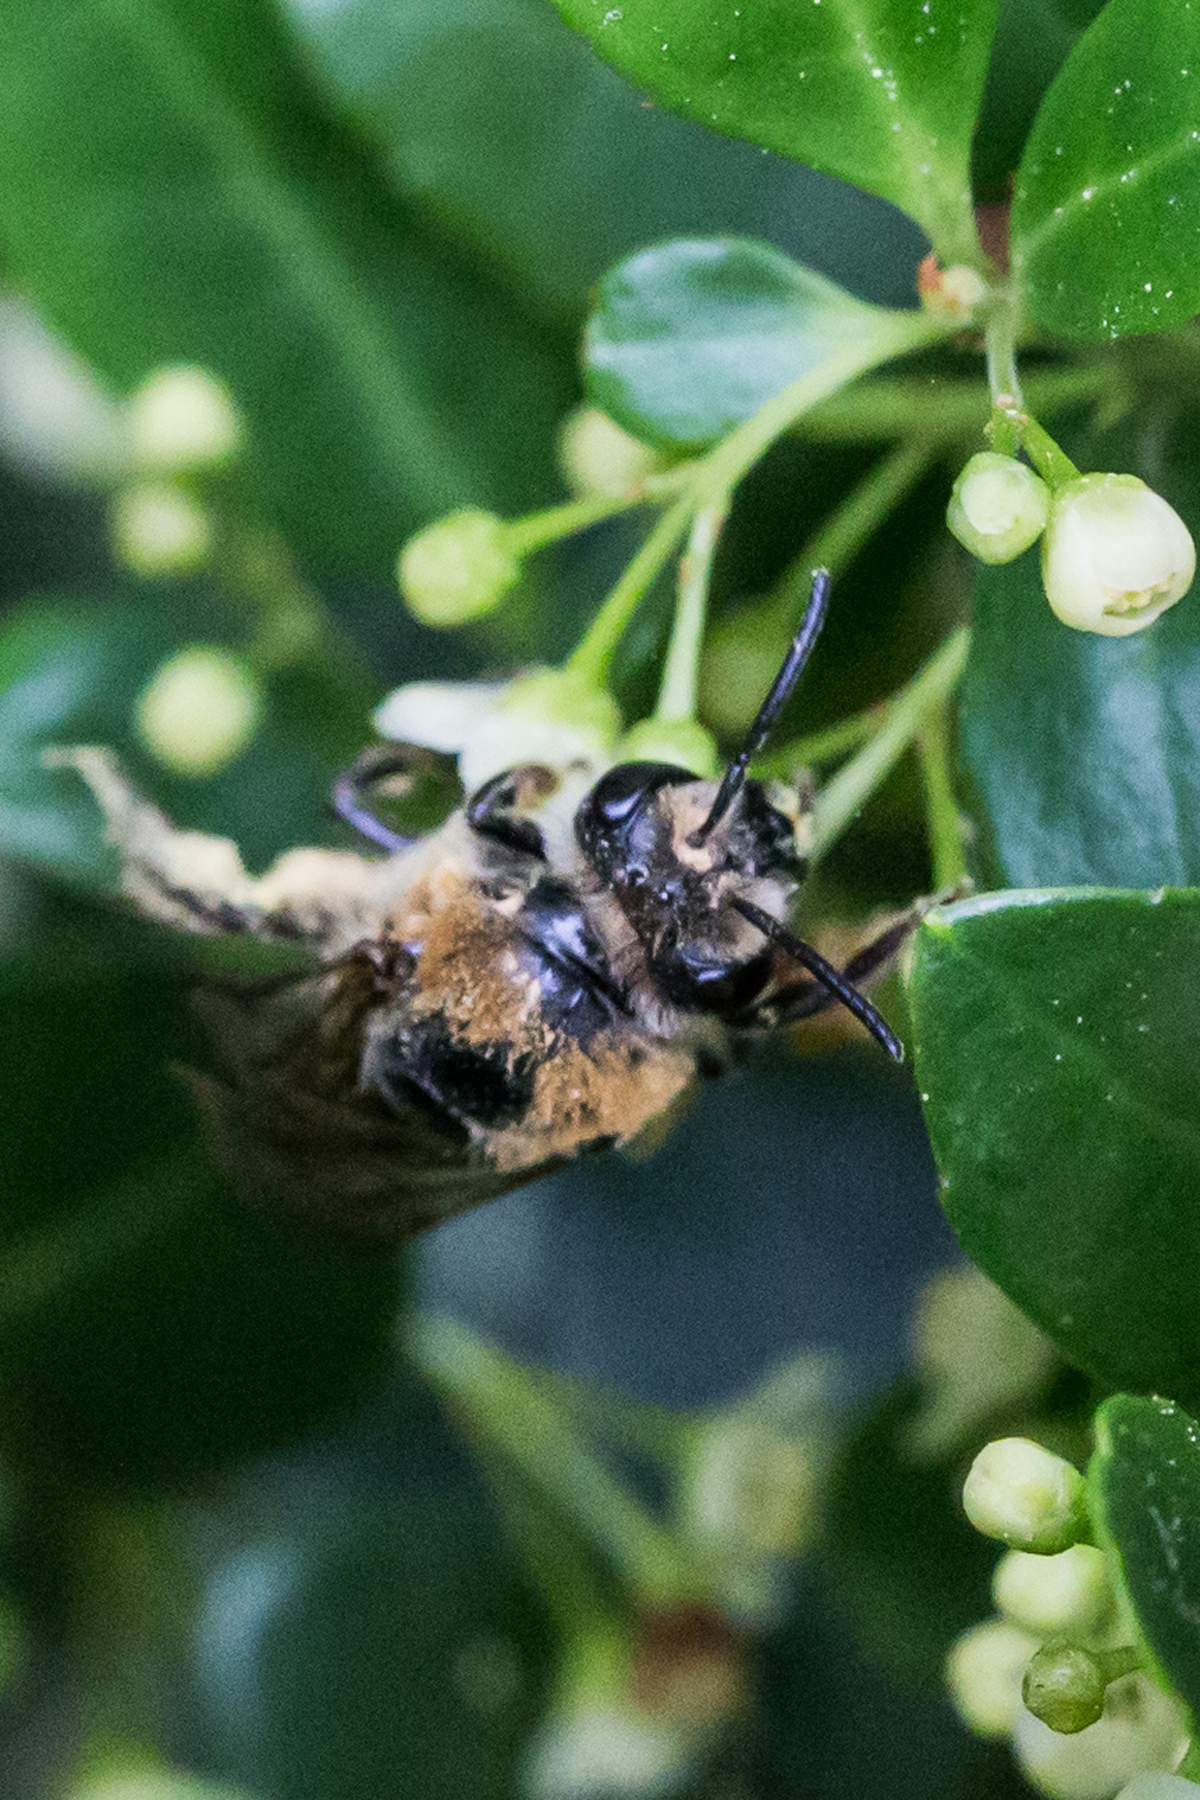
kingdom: Animalia
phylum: Arthropoda
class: Insecta
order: Hymenoptera
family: Colletidae
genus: Colletes
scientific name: Colletes thoracicus
